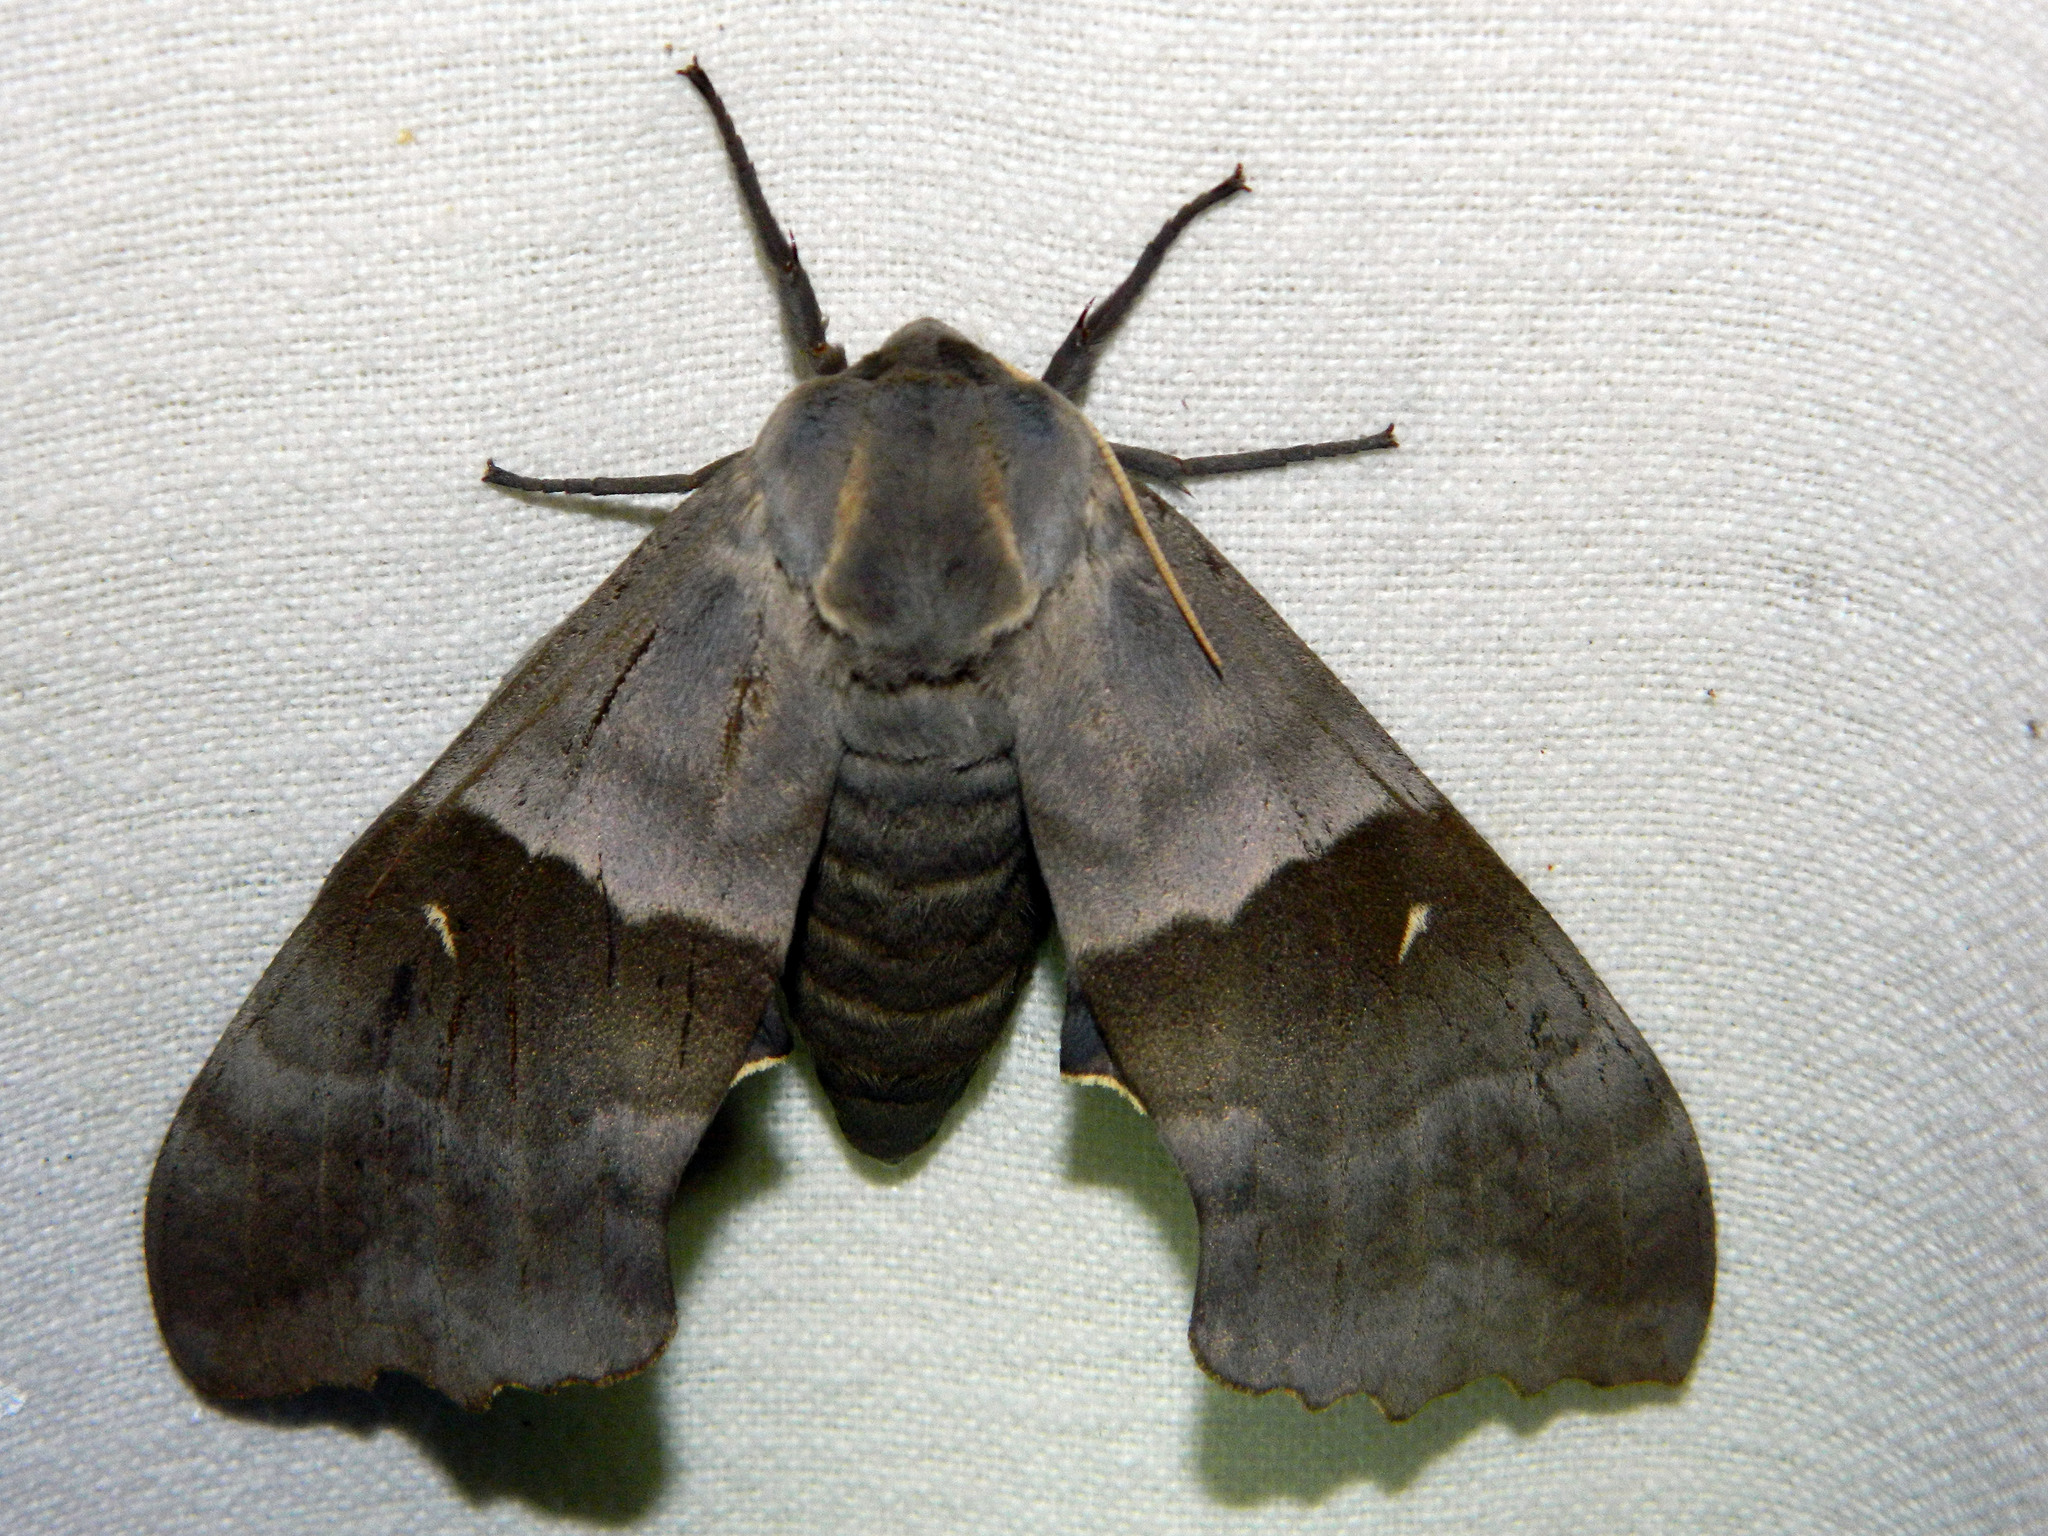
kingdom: Animalia
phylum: Arthropoda
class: Insecta
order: Lepidoptera
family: Sphingidae
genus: Pachysphinx
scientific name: Pachysphinx modesta
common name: Big poplar sphinx
